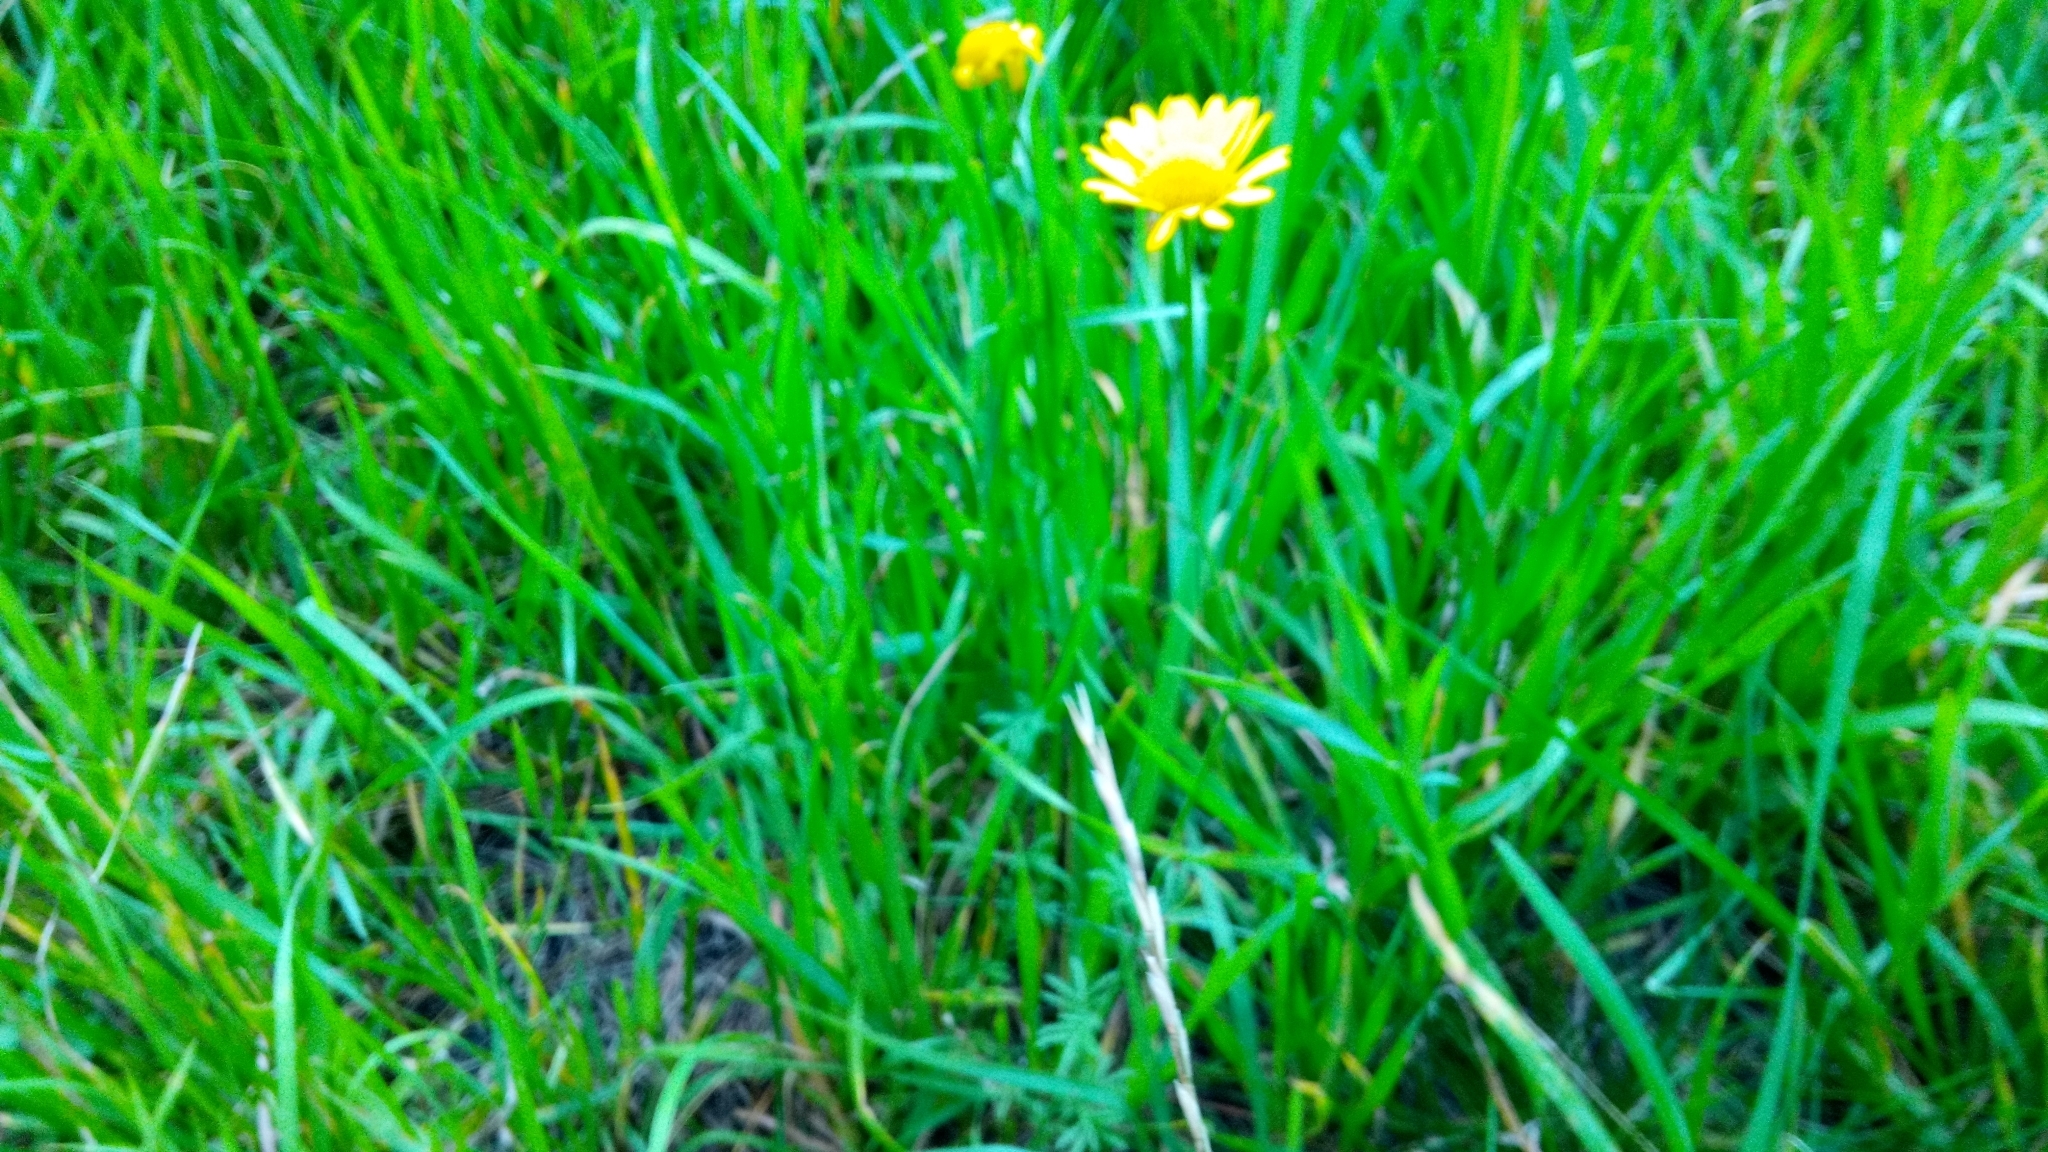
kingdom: Plantae
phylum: Tracheophyta
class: Magnoliopsida
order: Asterales
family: Asteraceae
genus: Cota
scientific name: Cota tinctoria
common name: Golden chamomile
